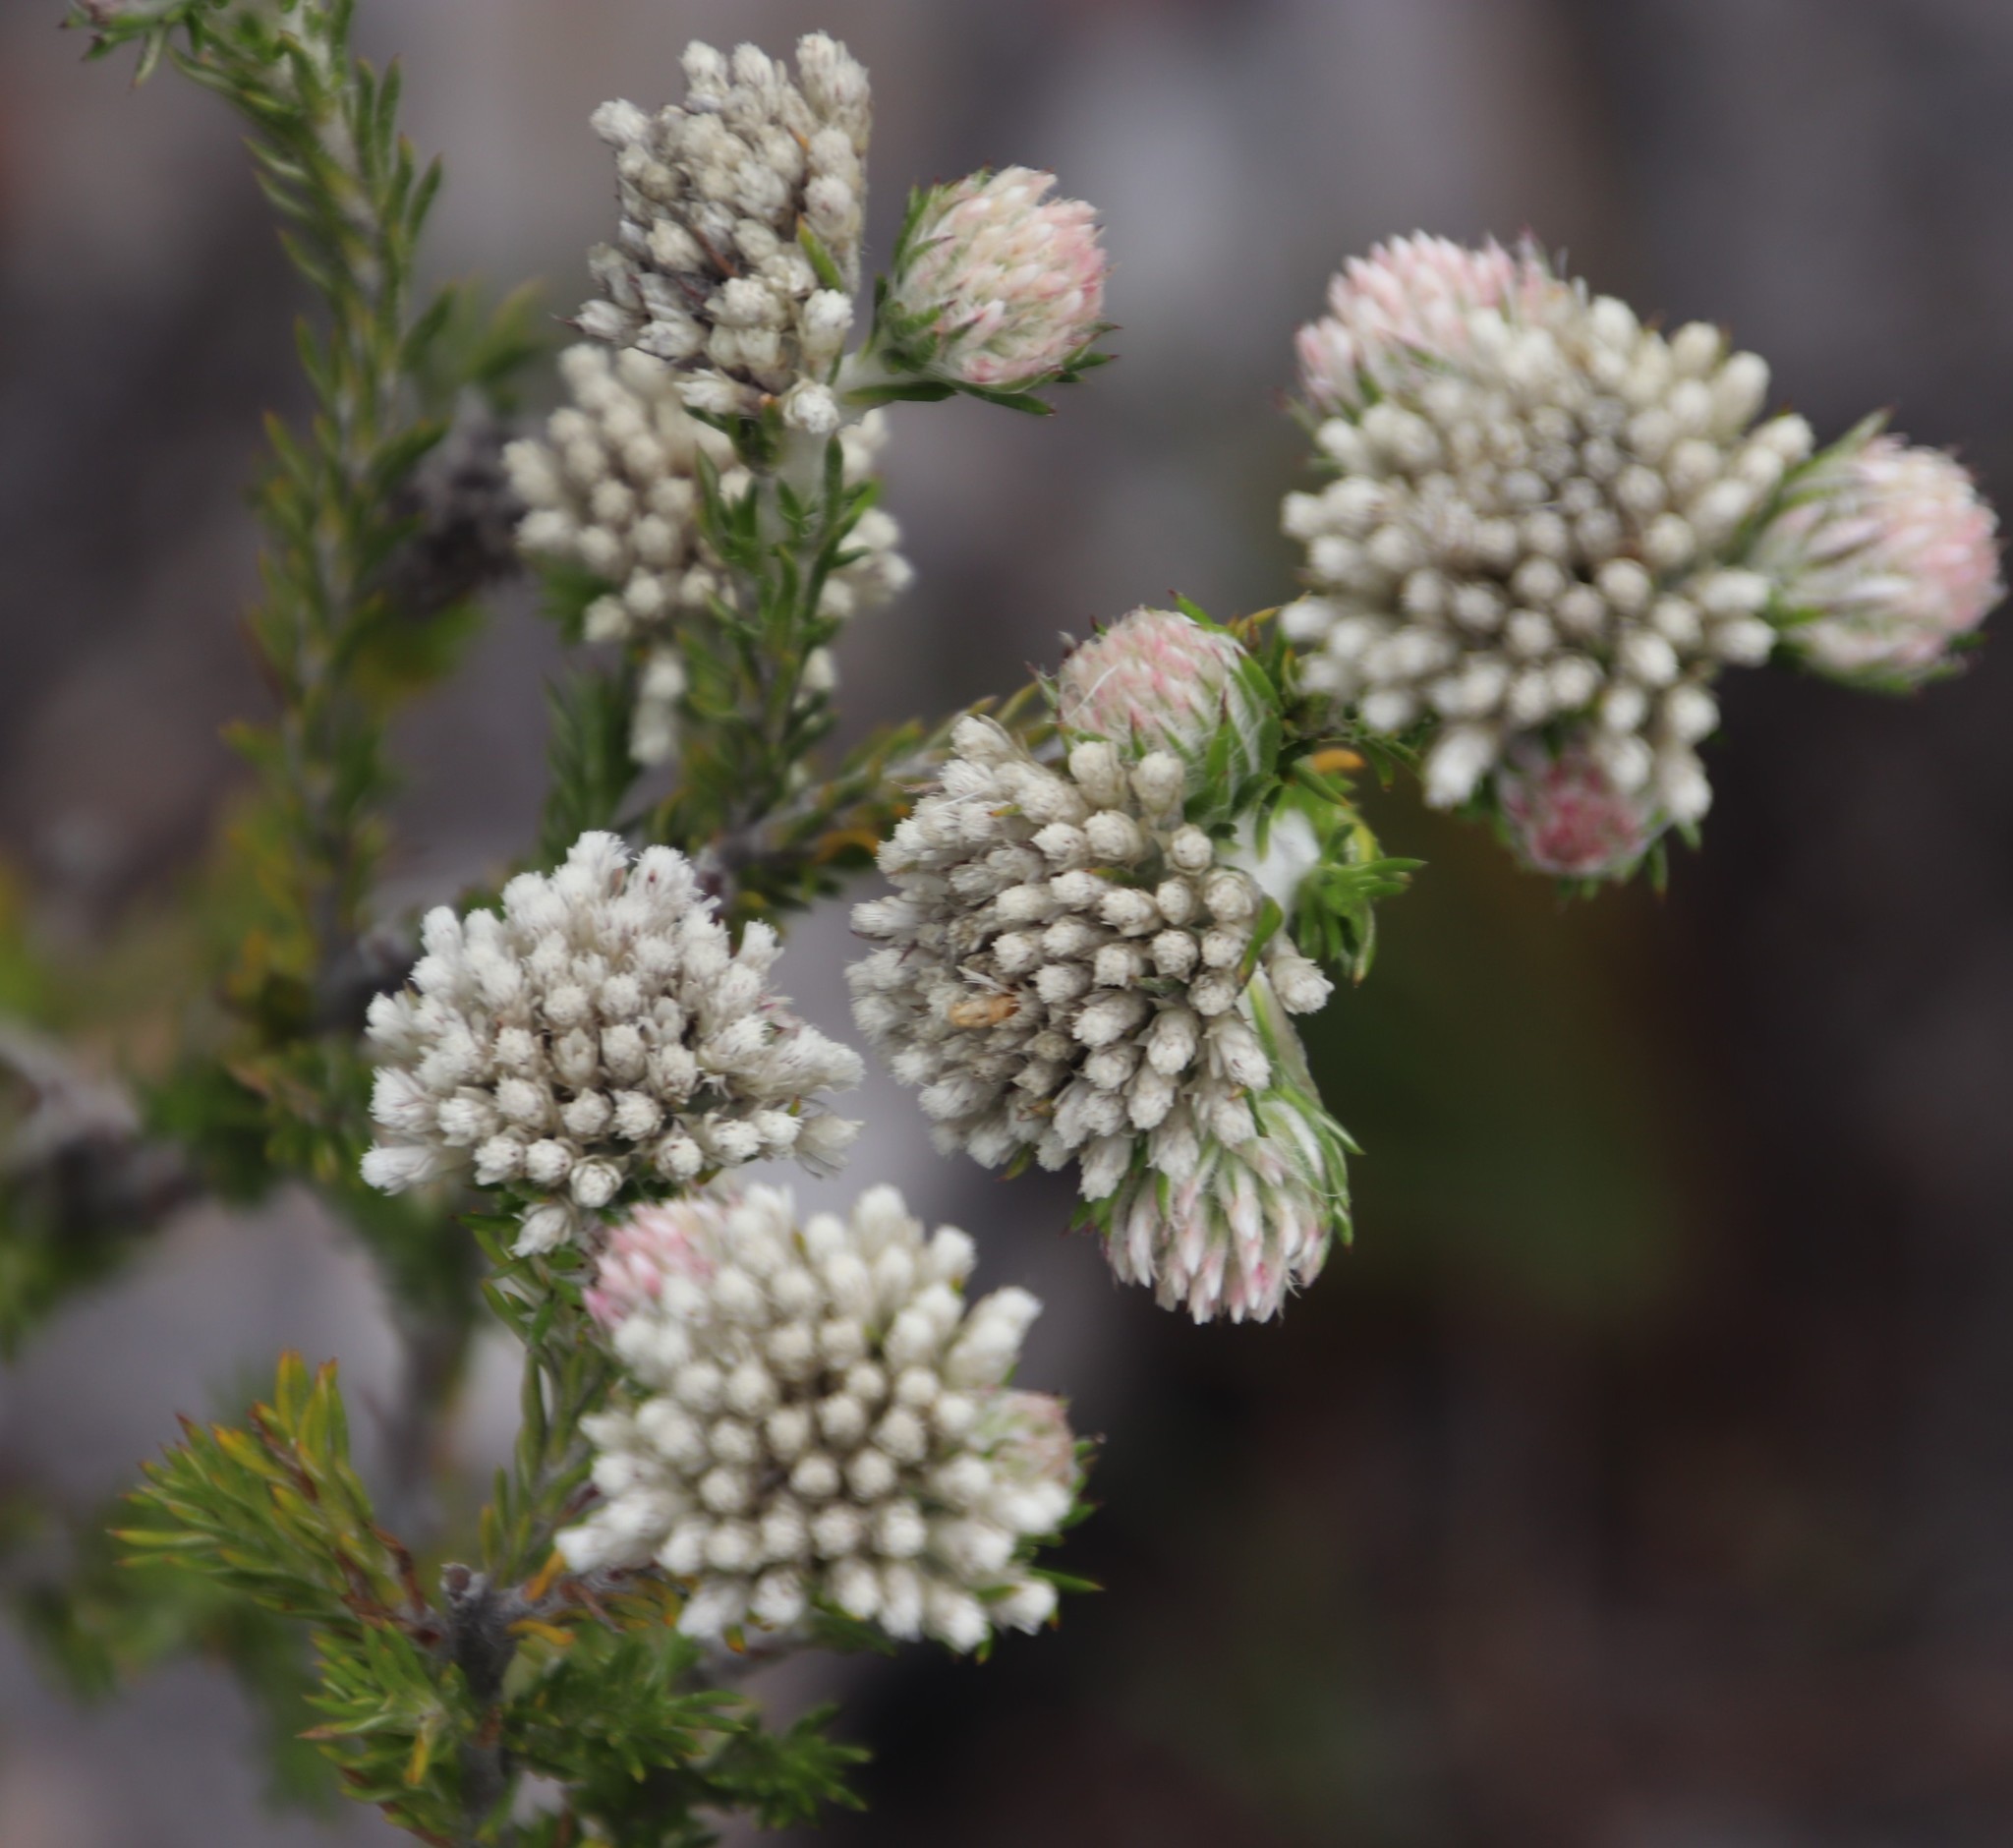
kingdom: Plantae
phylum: Tracheophyta
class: Magnoliopsida
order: Asterales
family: Asteraceae
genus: Metalasia
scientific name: Metalasia compacta
